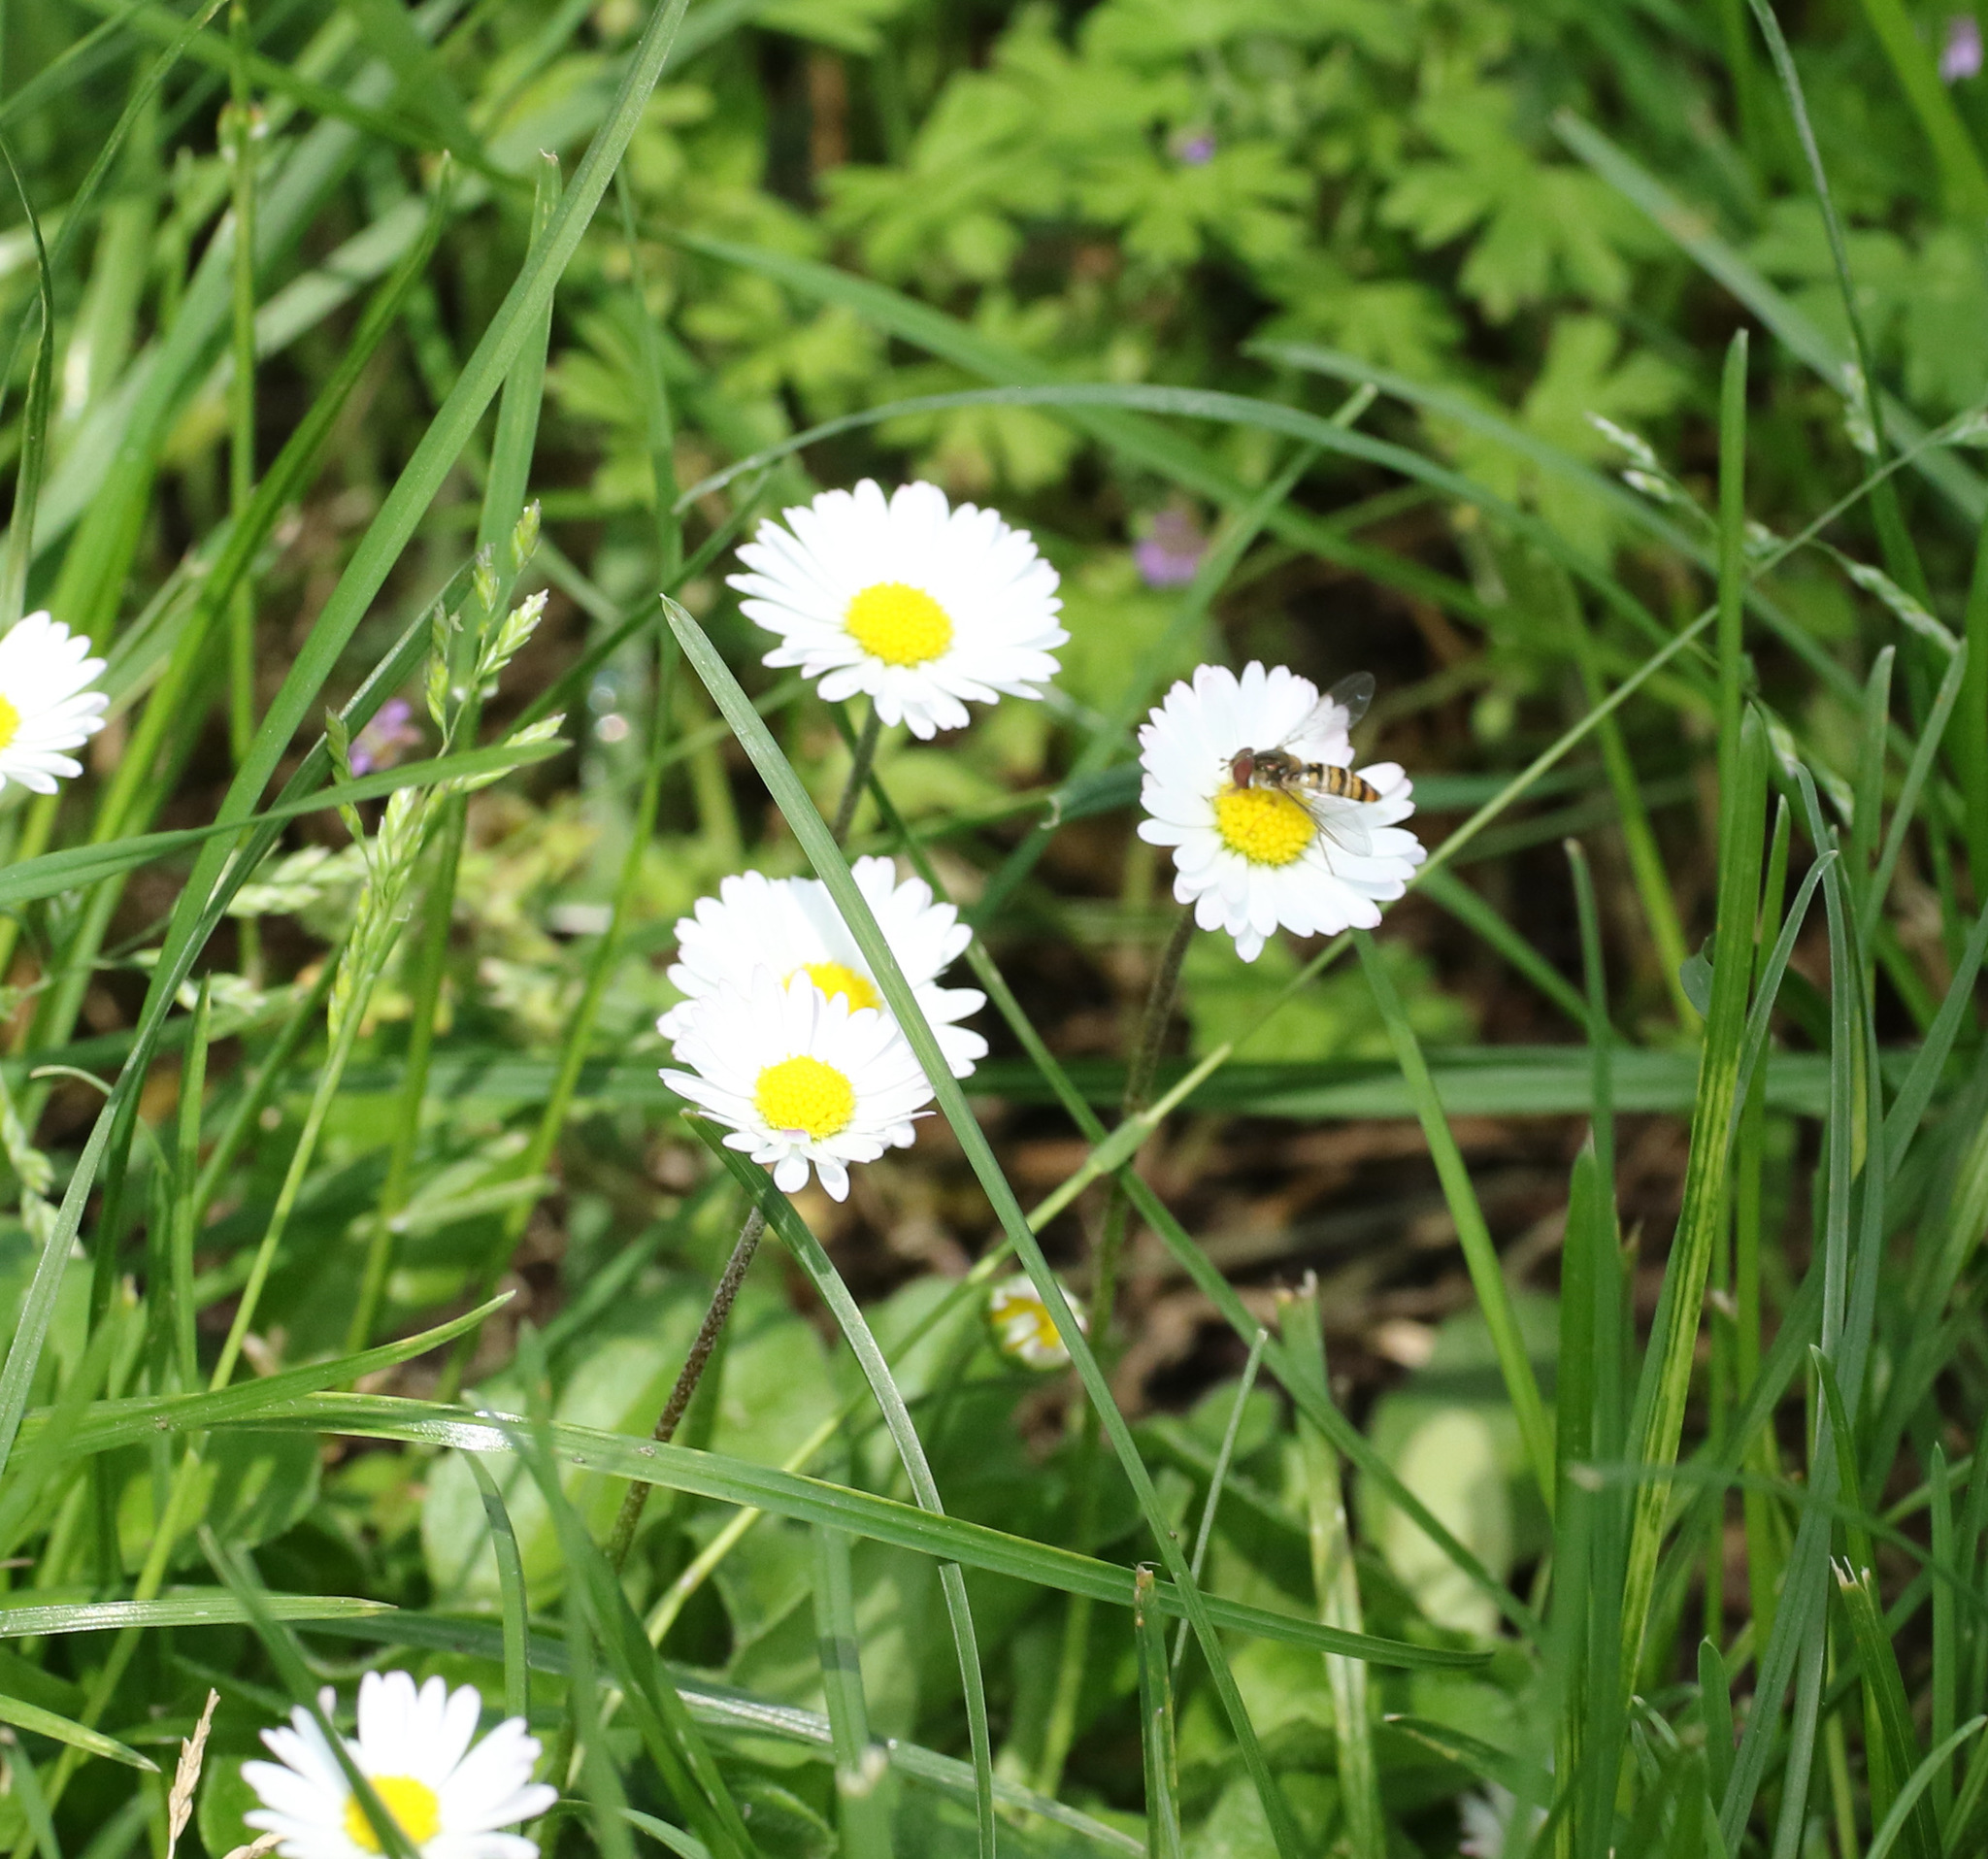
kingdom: Plantae
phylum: Tracheophyta
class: Magnoliopsida
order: Asterales
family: Asteraceae
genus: Bellis
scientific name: Bellis perennis
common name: Lawndaisy
